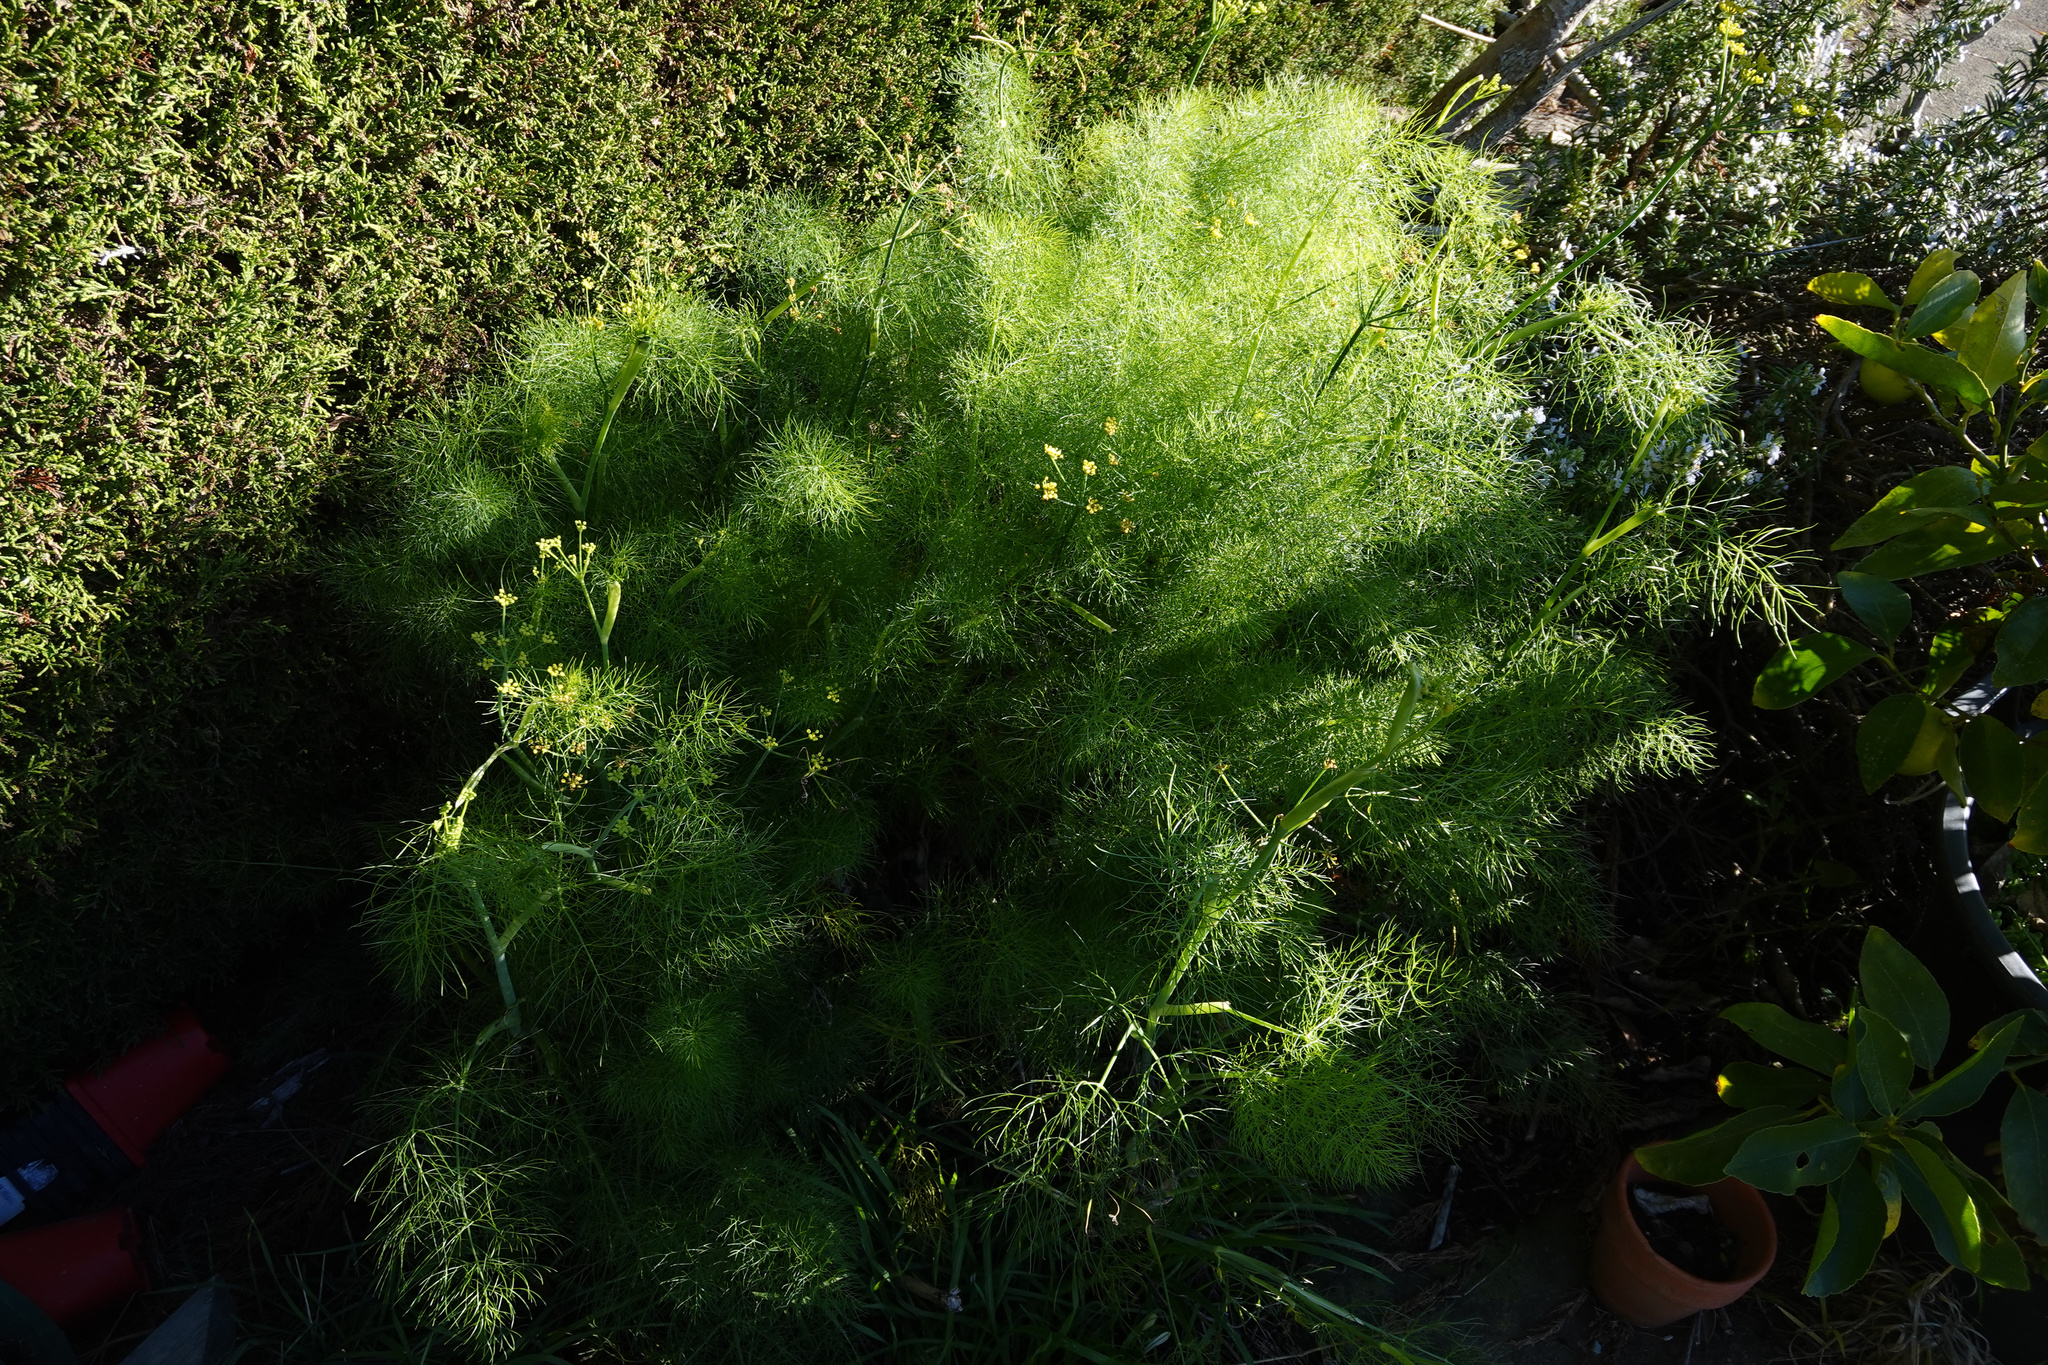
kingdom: Plantae
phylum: Tracheophyta
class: Magnoliopsida
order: Apiales
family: Apiaceae
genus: Foeniculum
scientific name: Foeniculum vulgare
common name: Fennel
